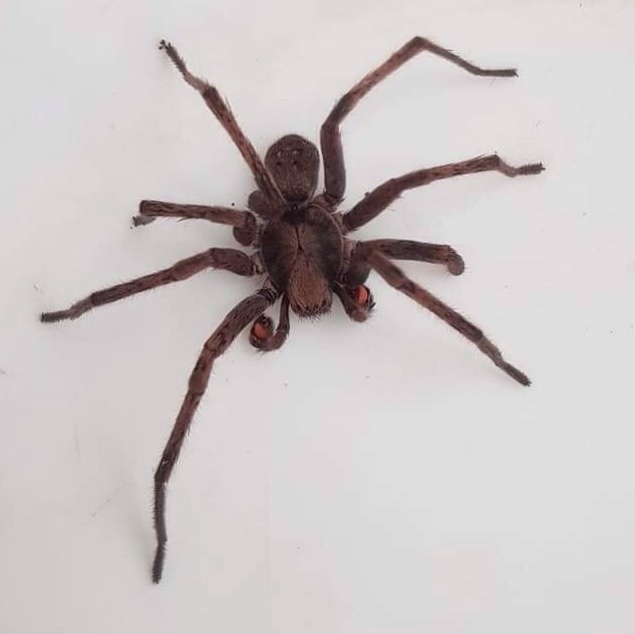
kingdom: Animalia
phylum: Arthropoda
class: Arachnida
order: Araneae
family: Zoropsidae
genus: Uliodon
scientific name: Uliodon
